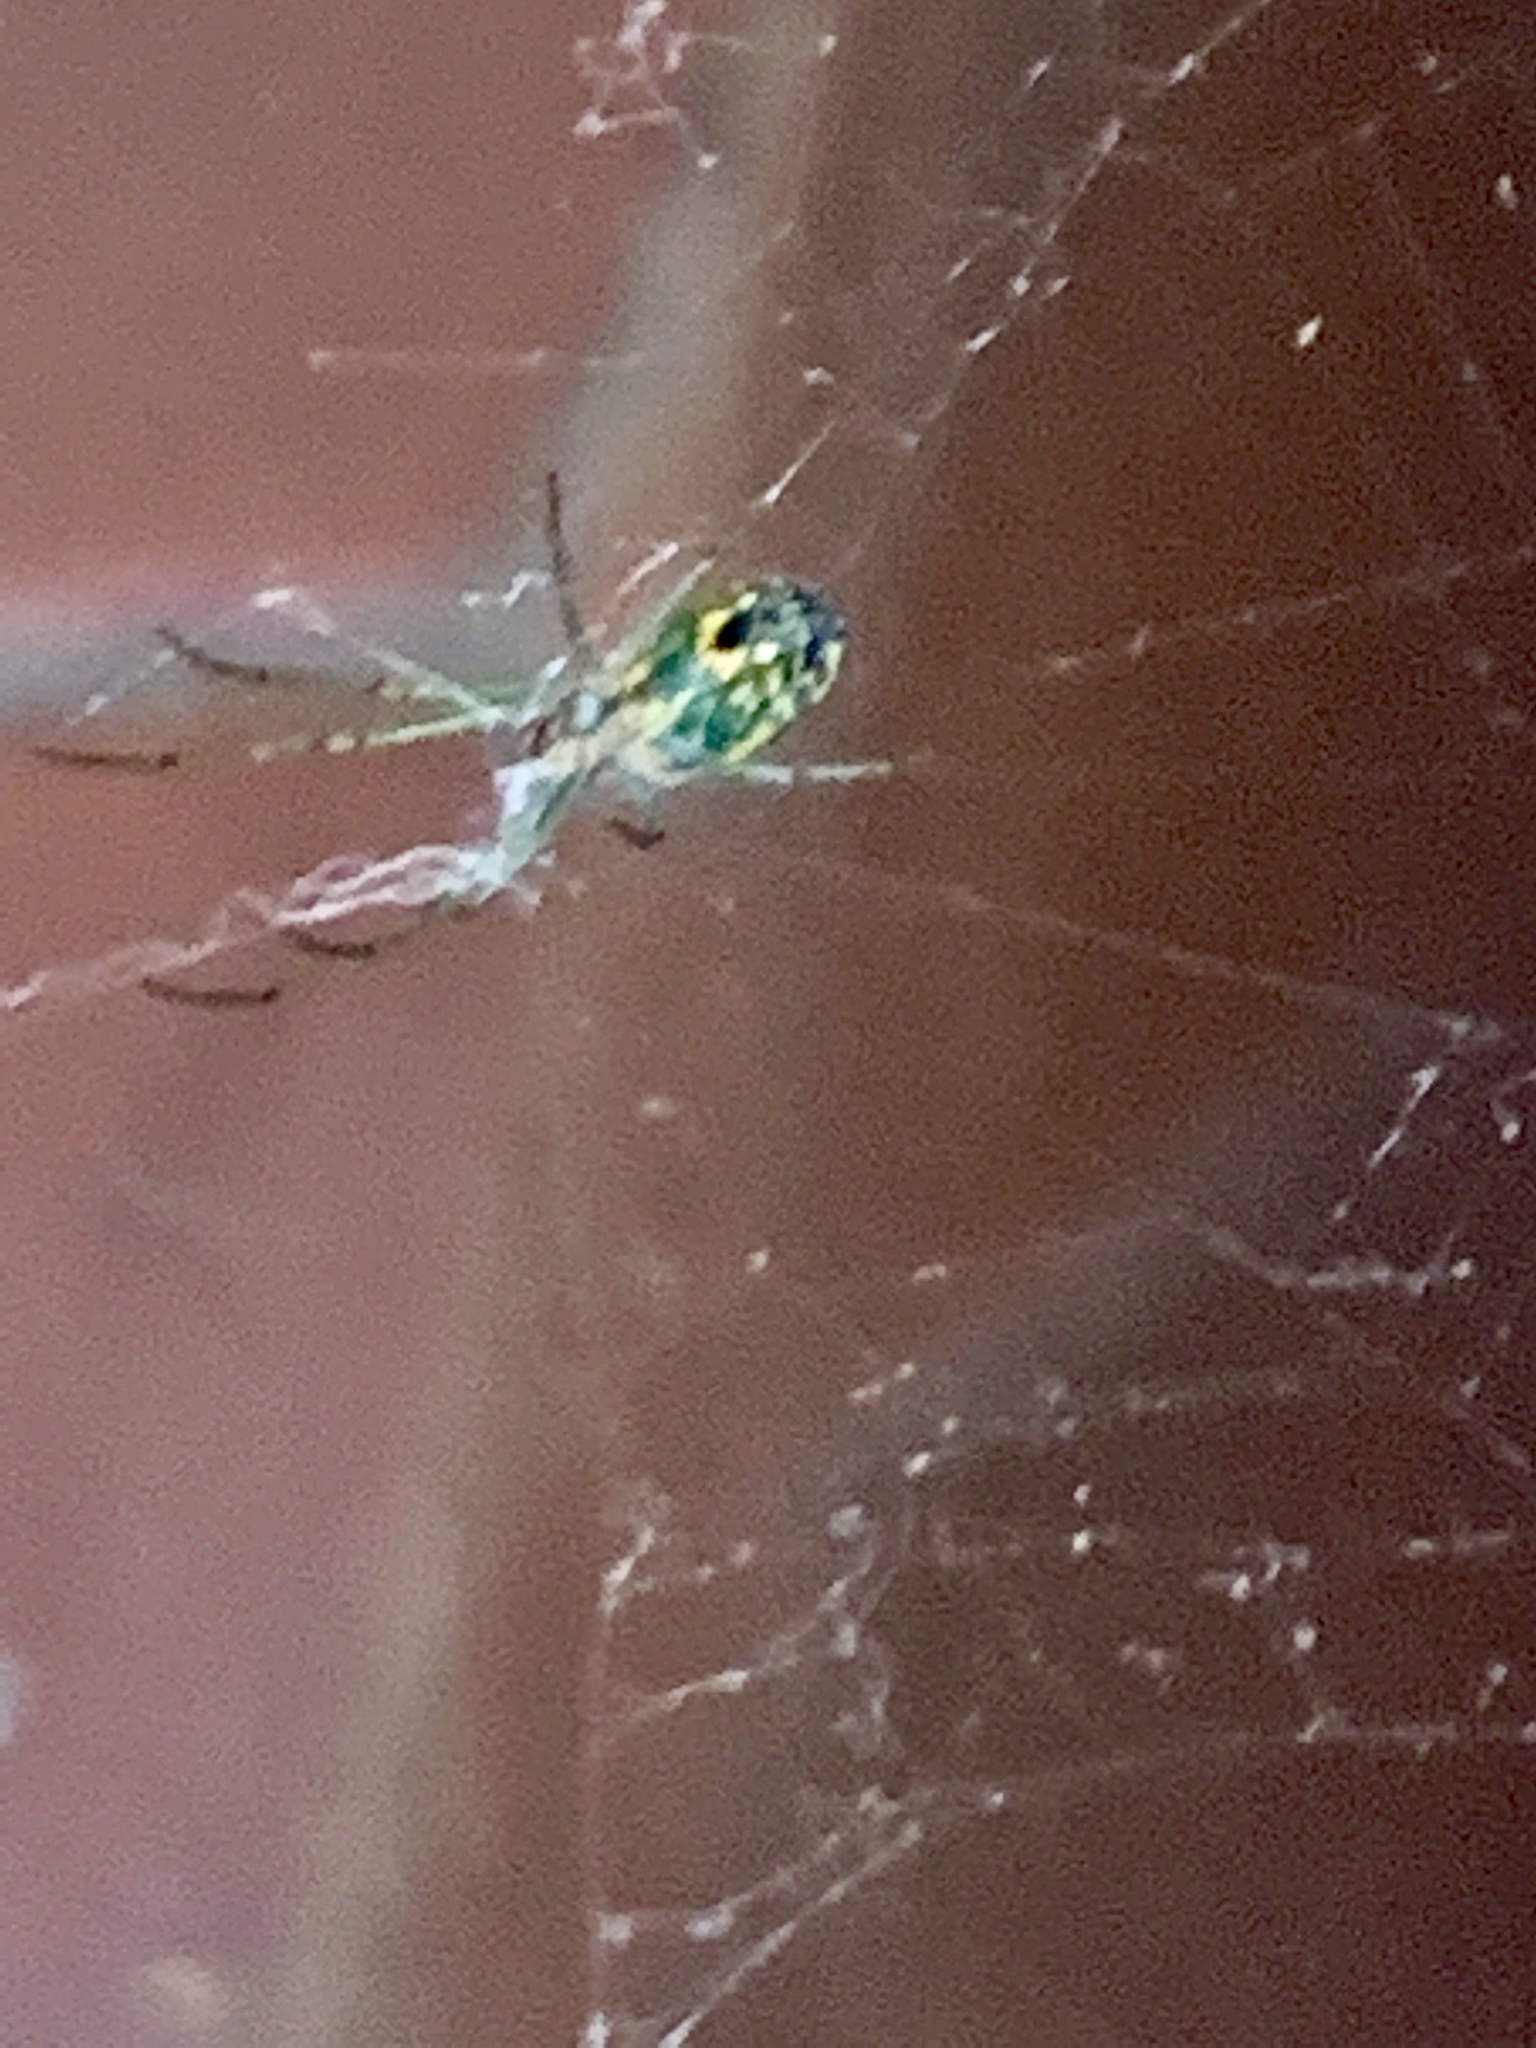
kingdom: Animalia
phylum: Arthropoda
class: Arachnida
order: Araneae
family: Tetragnathidae
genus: Leucauge
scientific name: Leucauge venusta
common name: Longjawed orb weavers
